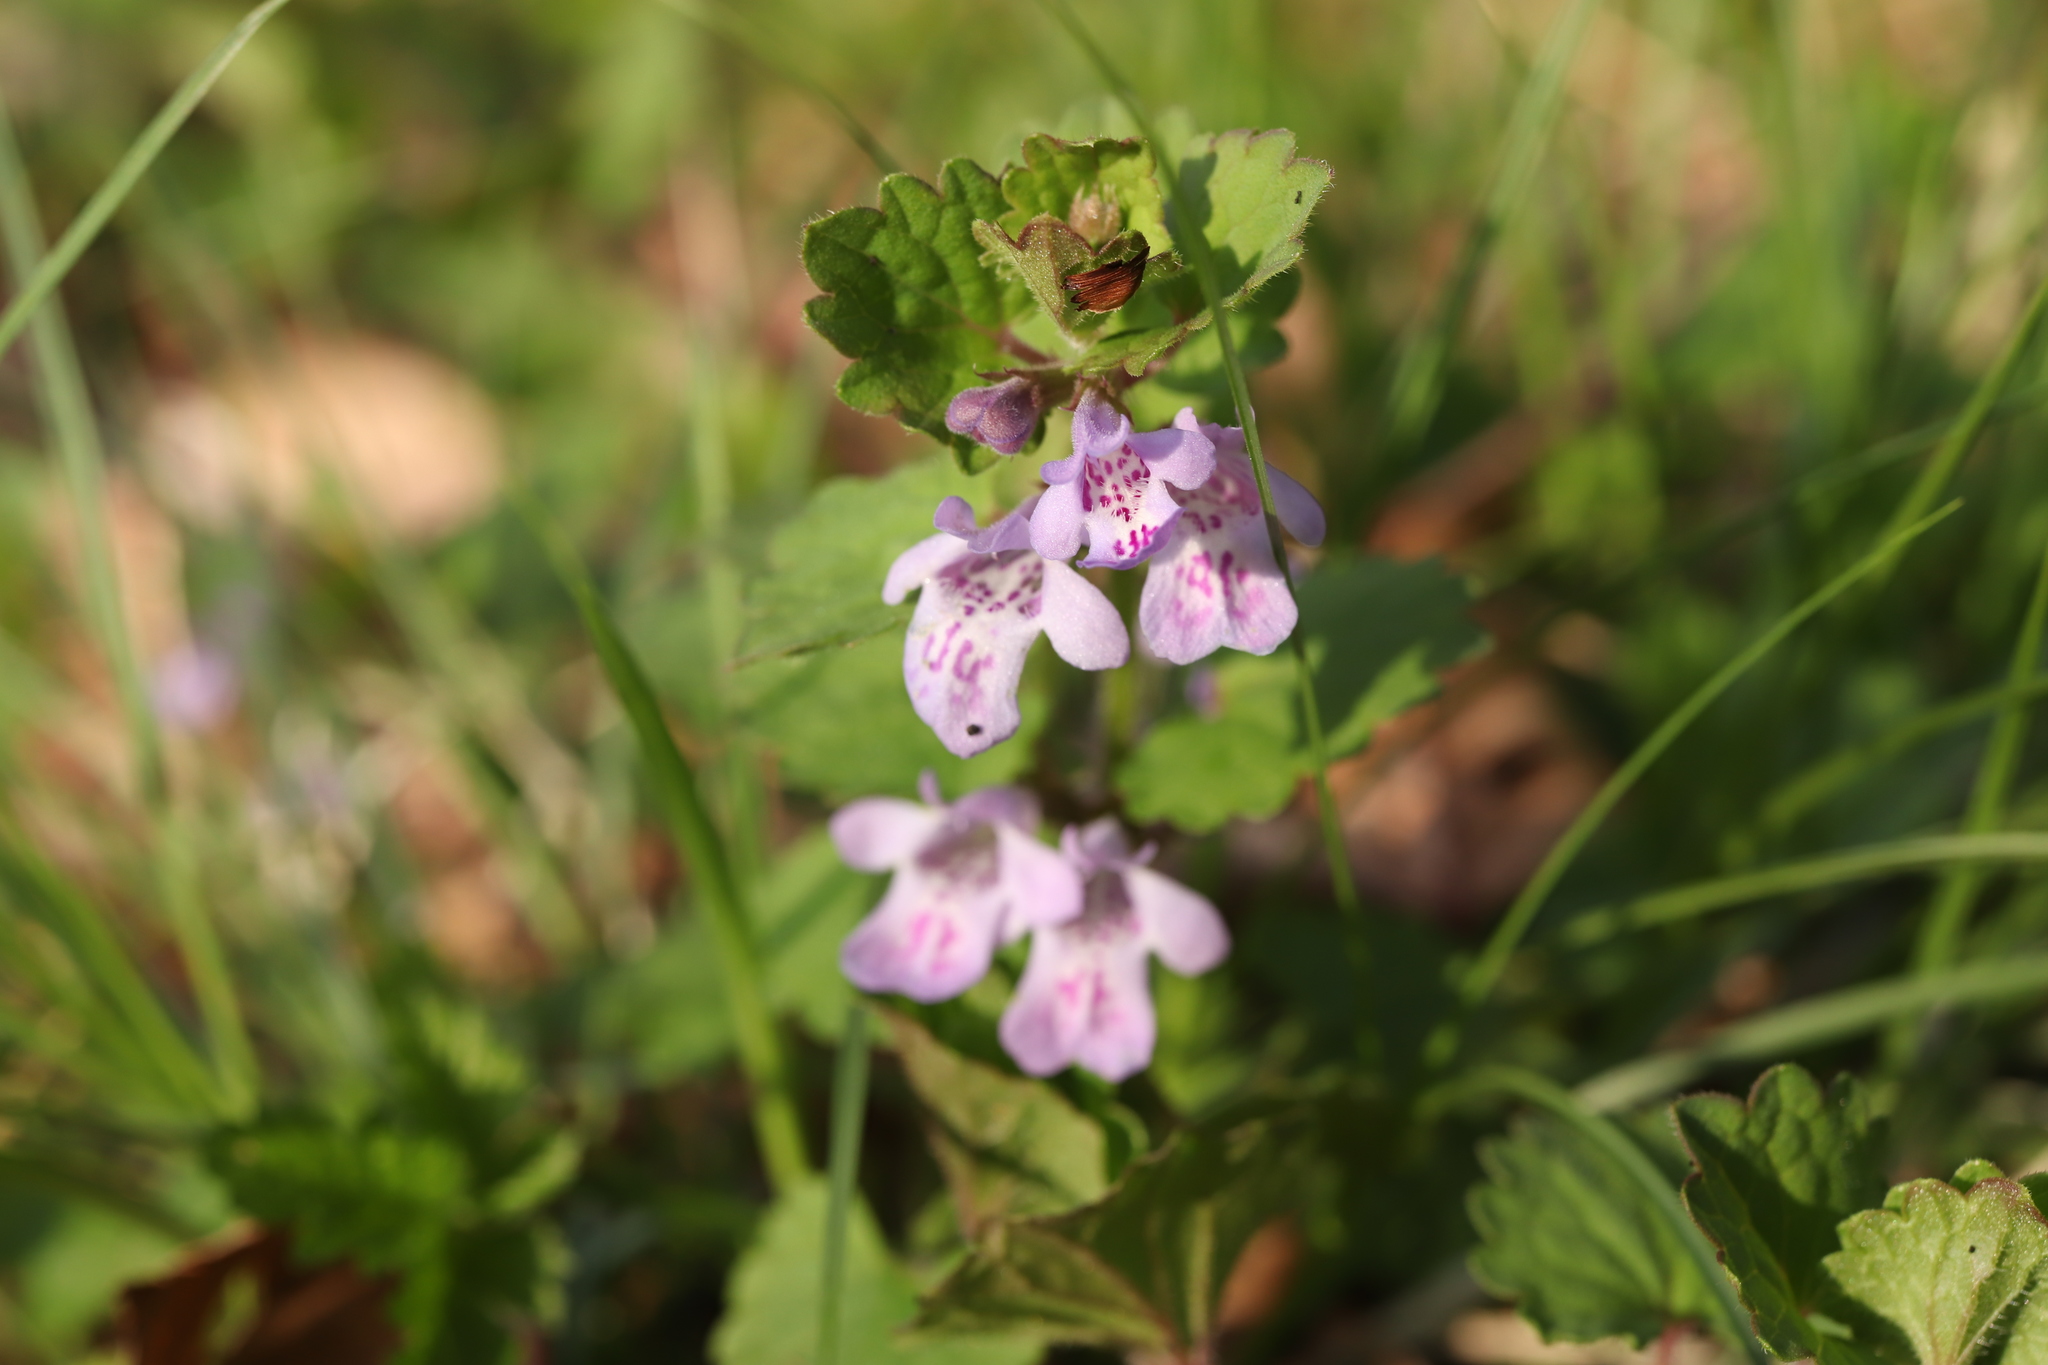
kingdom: Plantae
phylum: Tracheophyta
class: Magnoliopsida
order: Lamiales
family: Lamiaceae
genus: Glechoma
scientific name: Glechoma grandis
